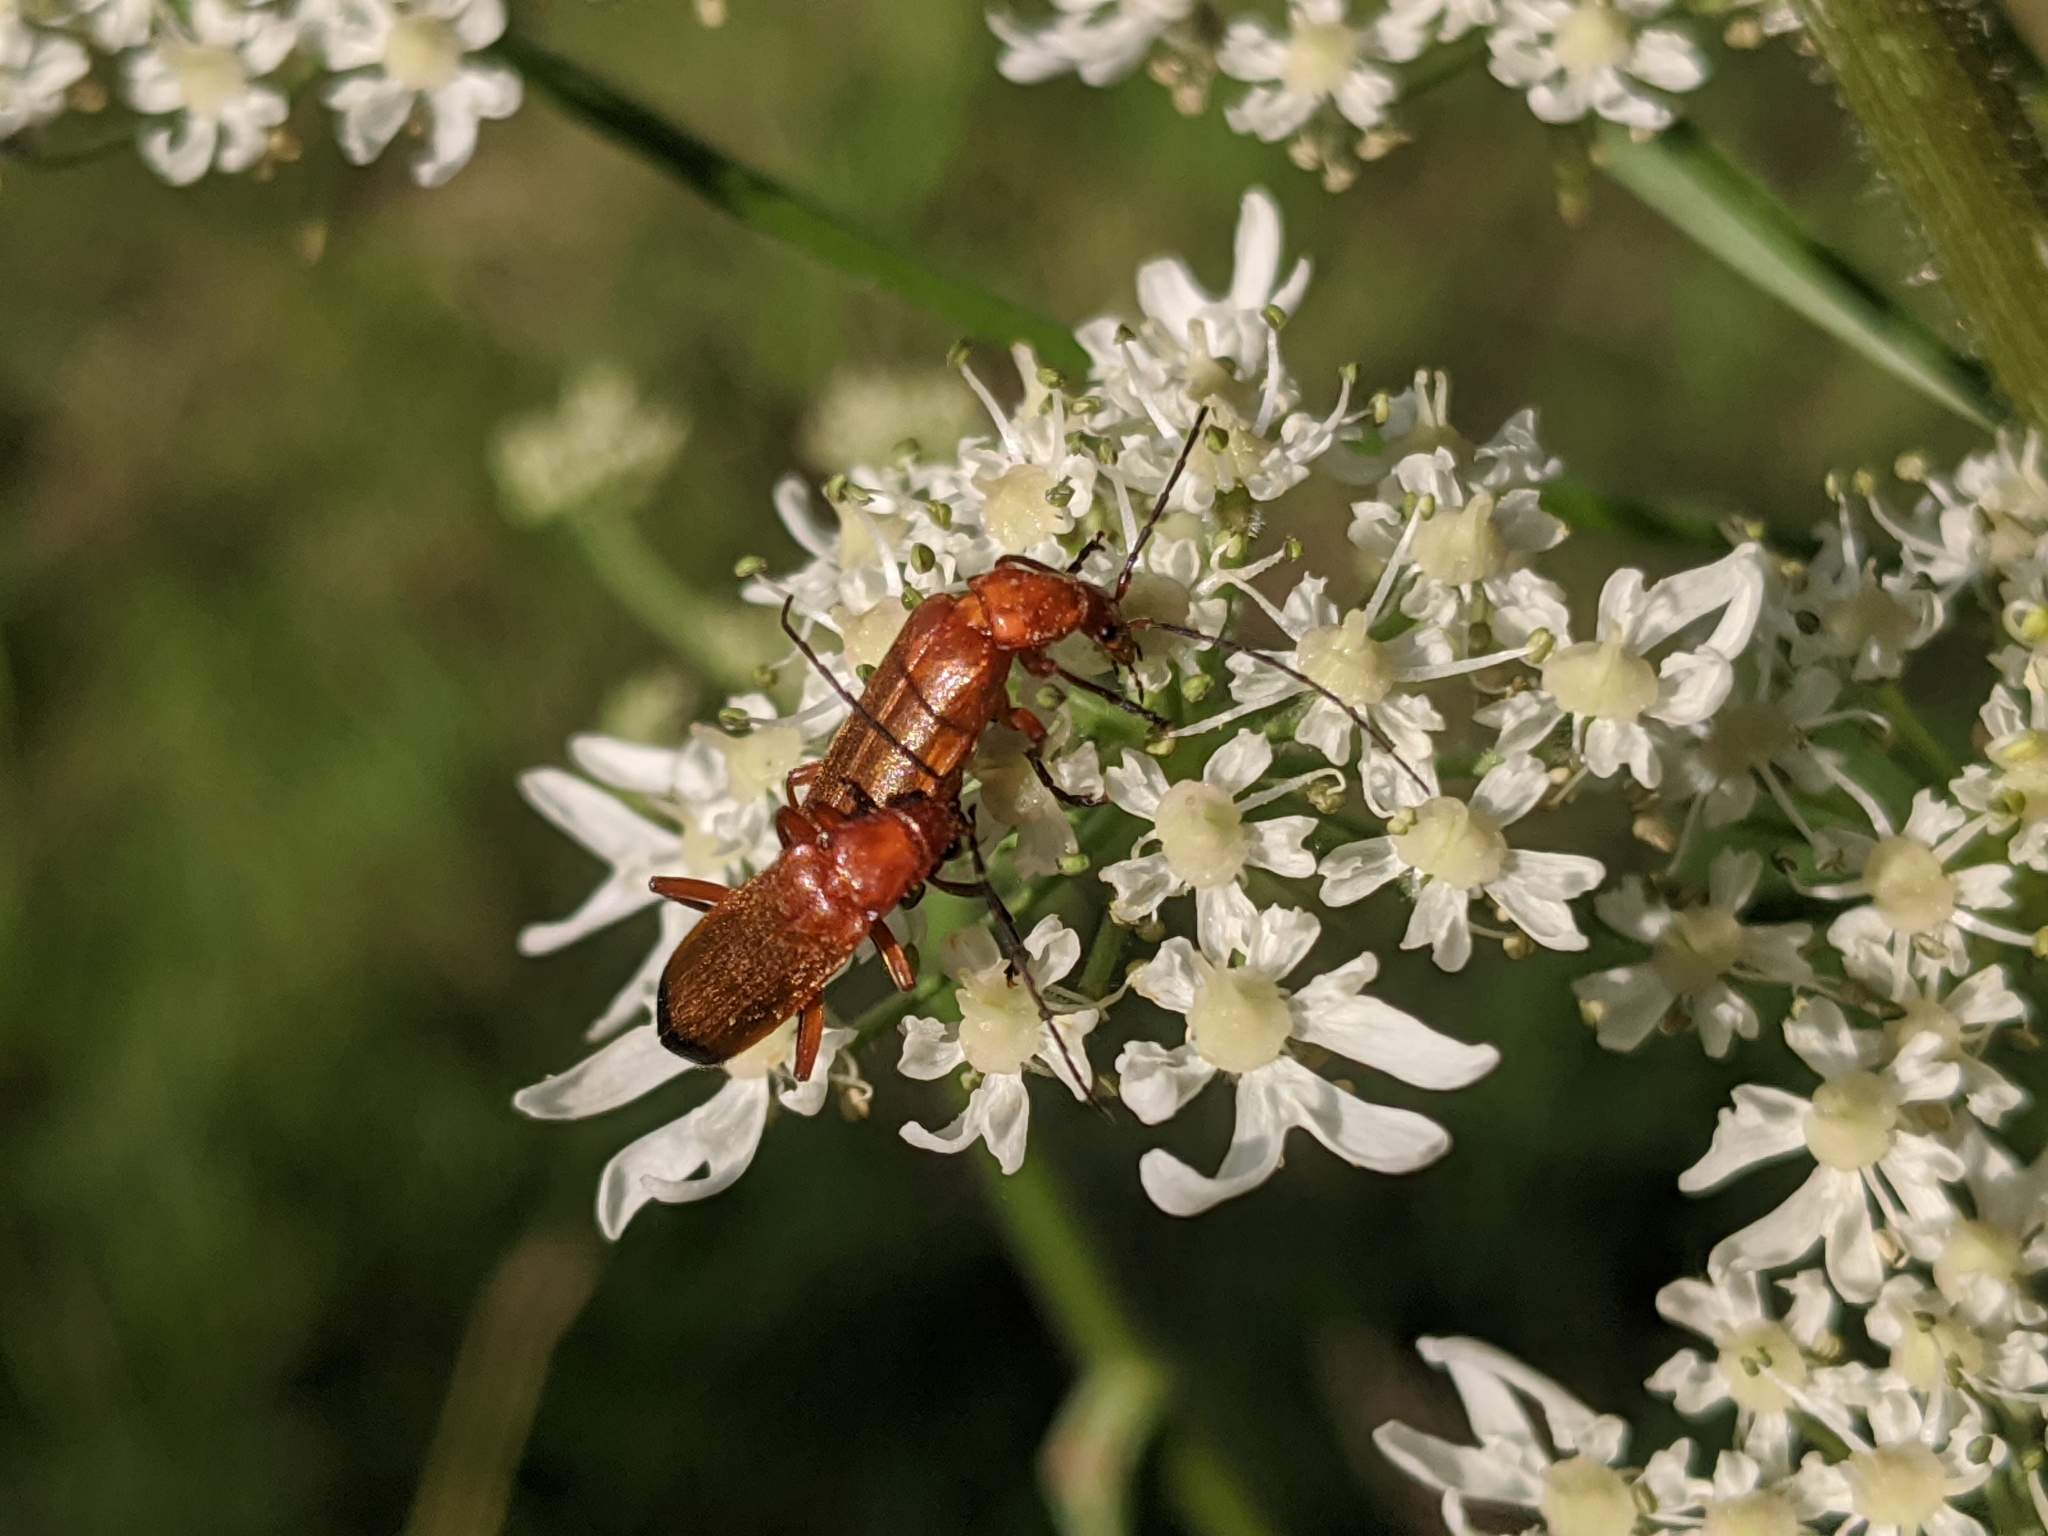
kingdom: Animalia
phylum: Arthropoda
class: Insecta
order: Coleoptera
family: Cantharidae
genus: Rhagonycha
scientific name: Rhagonycha fulva
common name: Common red soldier beetle
